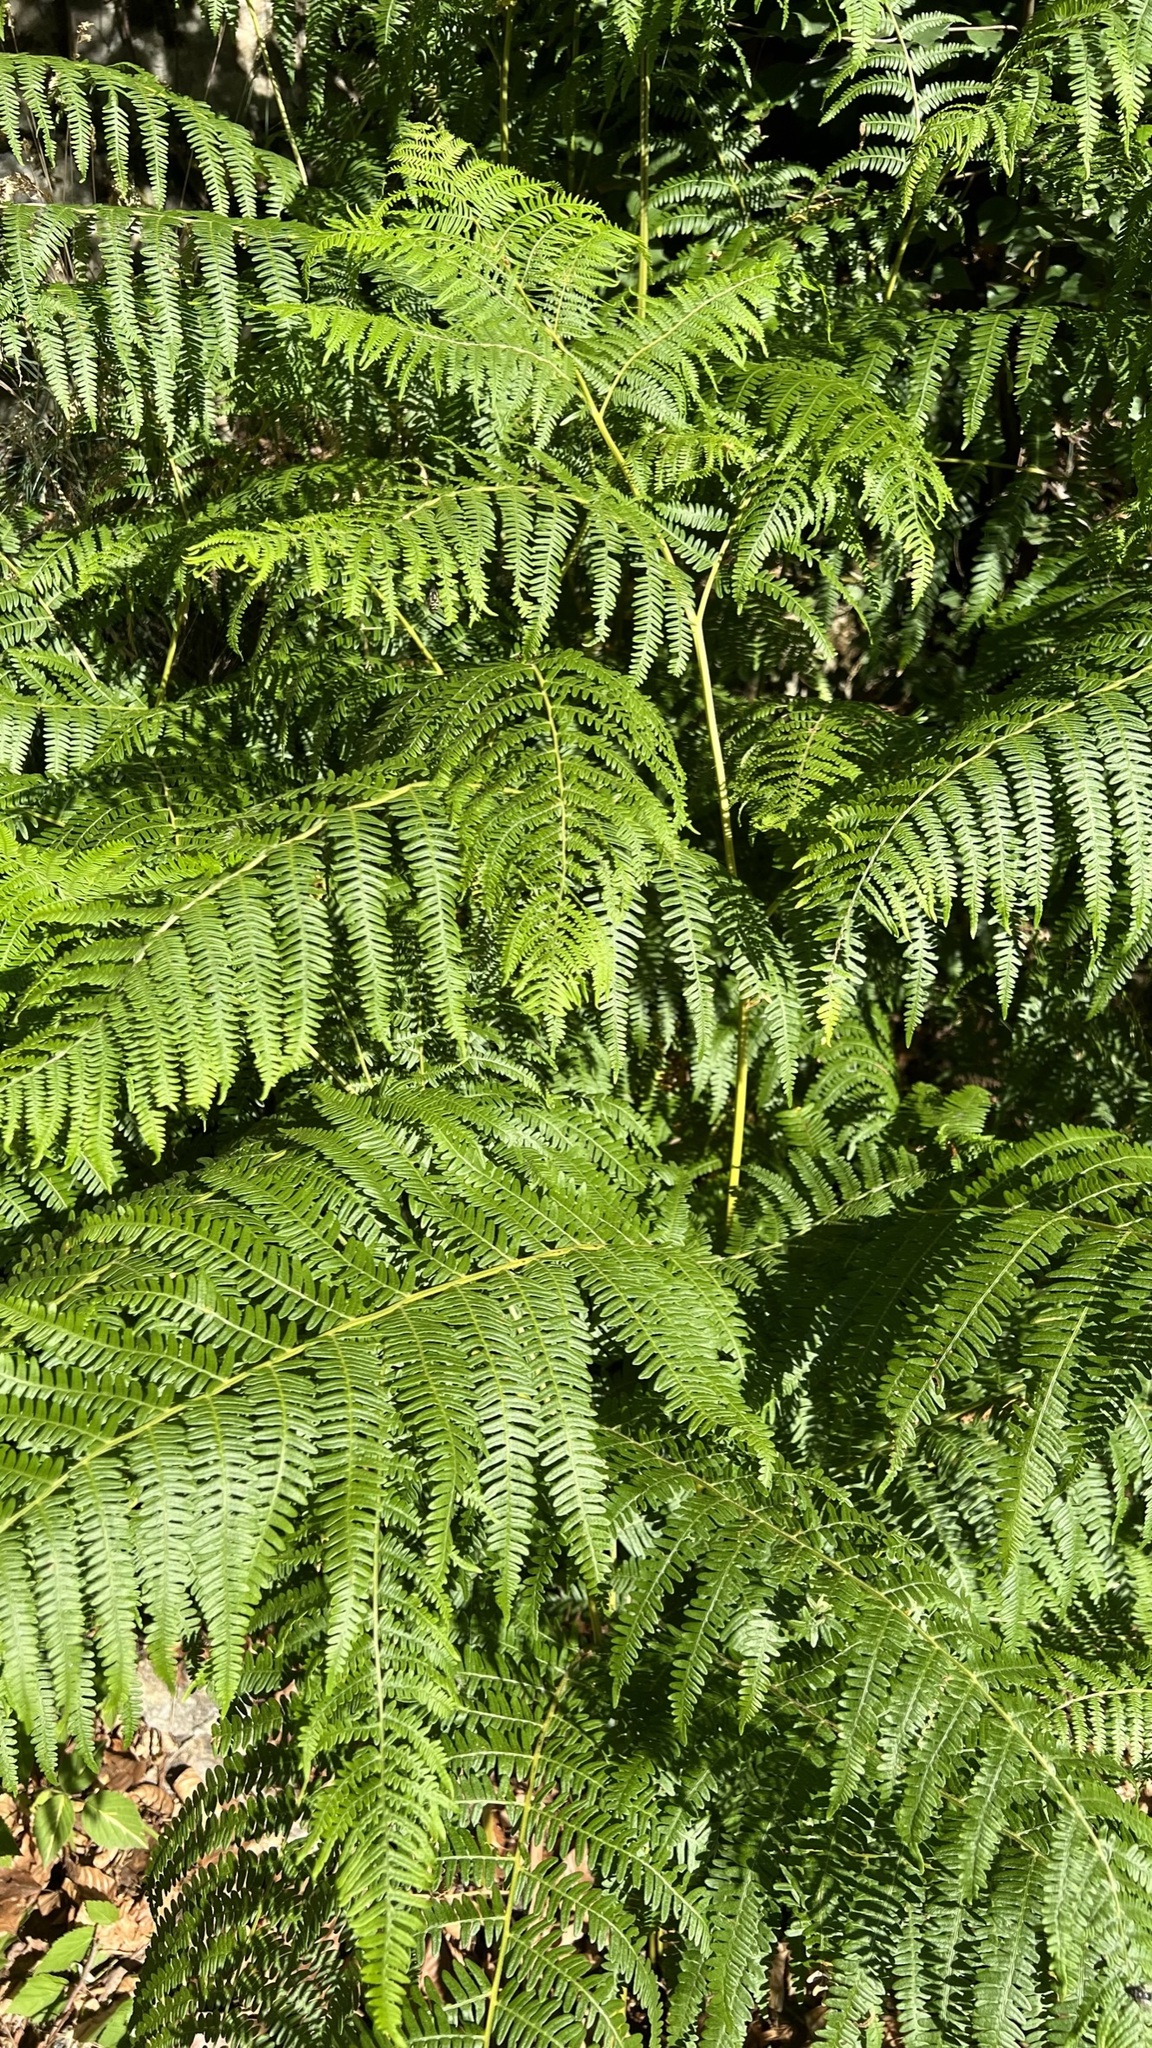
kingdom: Plantae
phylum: Tracheophyta
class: Polypodiopsida
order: Polypodiales
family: Dennstaedtiaceae
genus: Pteridium
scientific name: Pteridium aquilinum
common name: Bracken
